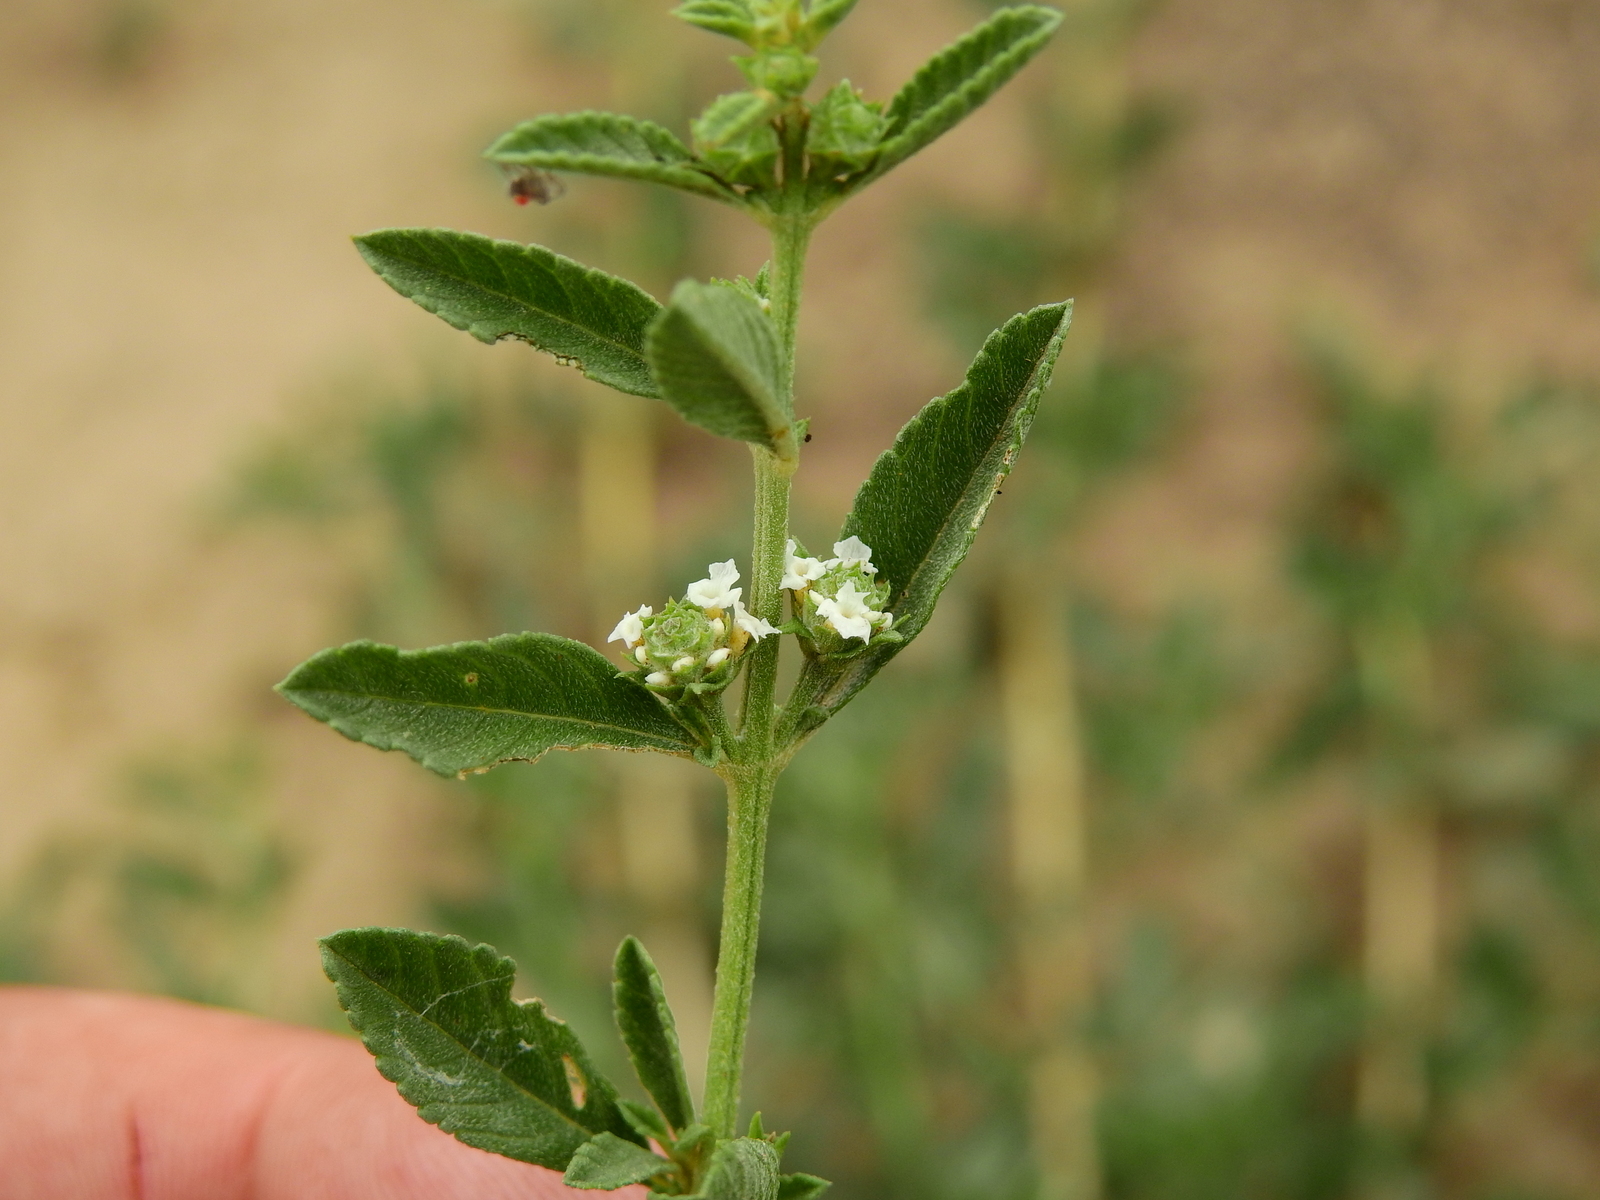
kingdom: Plantae
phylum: Tracheophyta
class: Magnoliopsida
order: Lamiales
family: Verbenaceae
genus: Lippia
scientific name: Lippia turbinata
